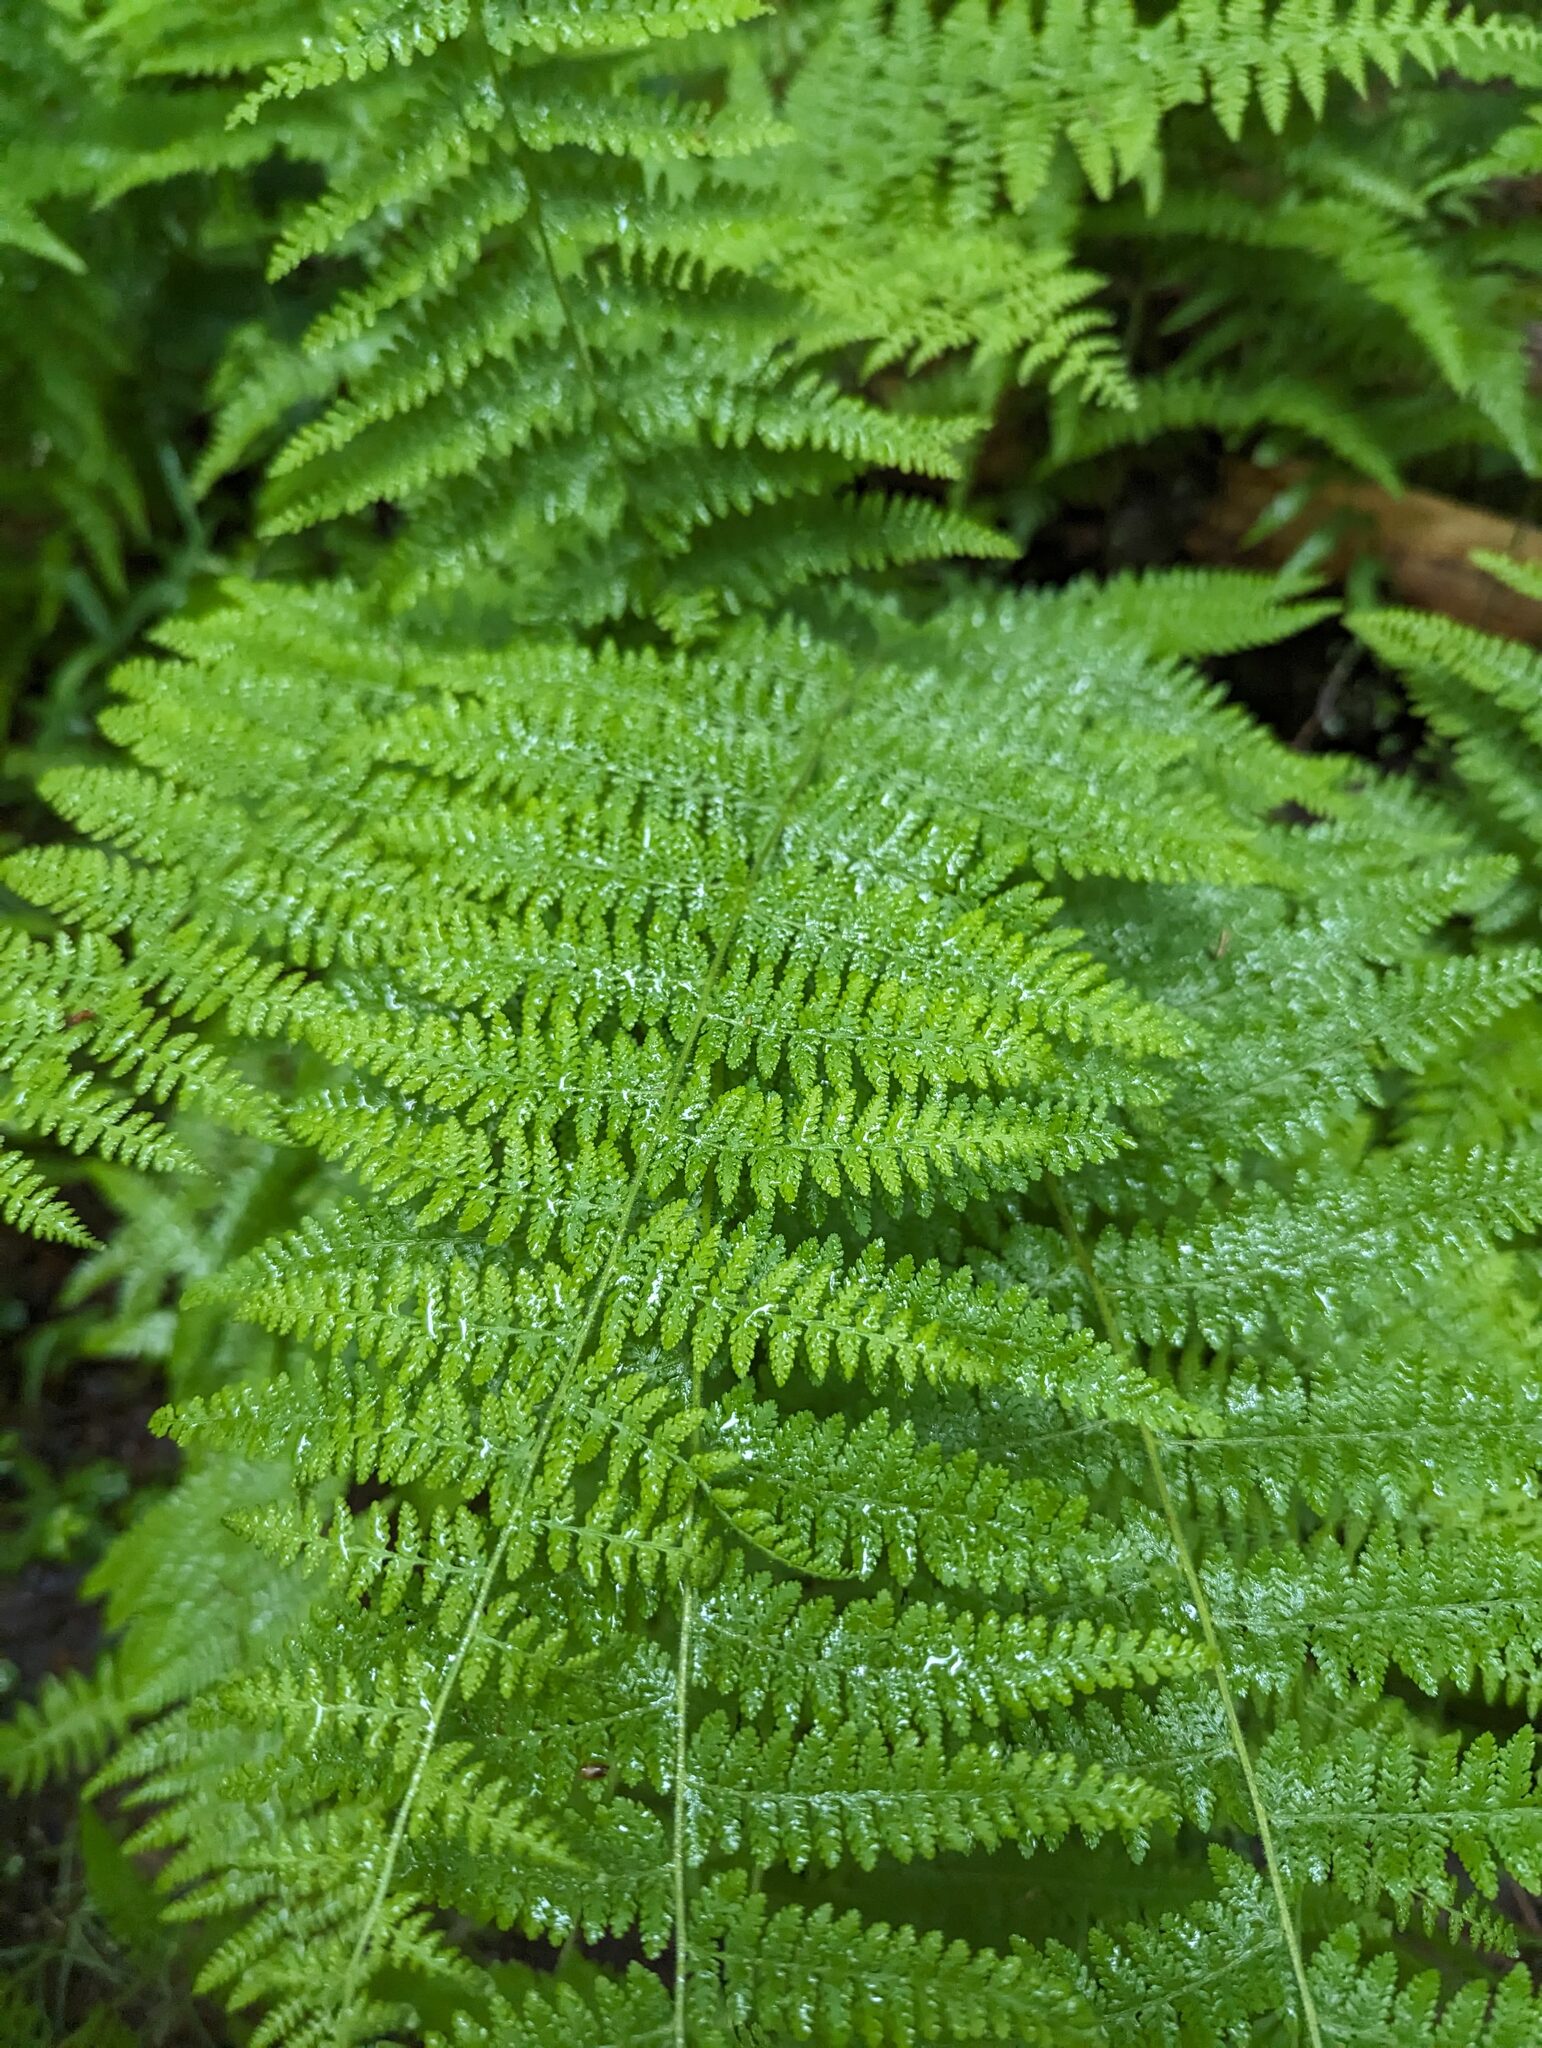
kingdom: Plantae
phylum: Tracheophyta
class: Polypodiopsida
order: Polypodiales
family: Dennstaedtiaceae
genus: Sitobolium
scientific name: Sitobolium punctilobum
